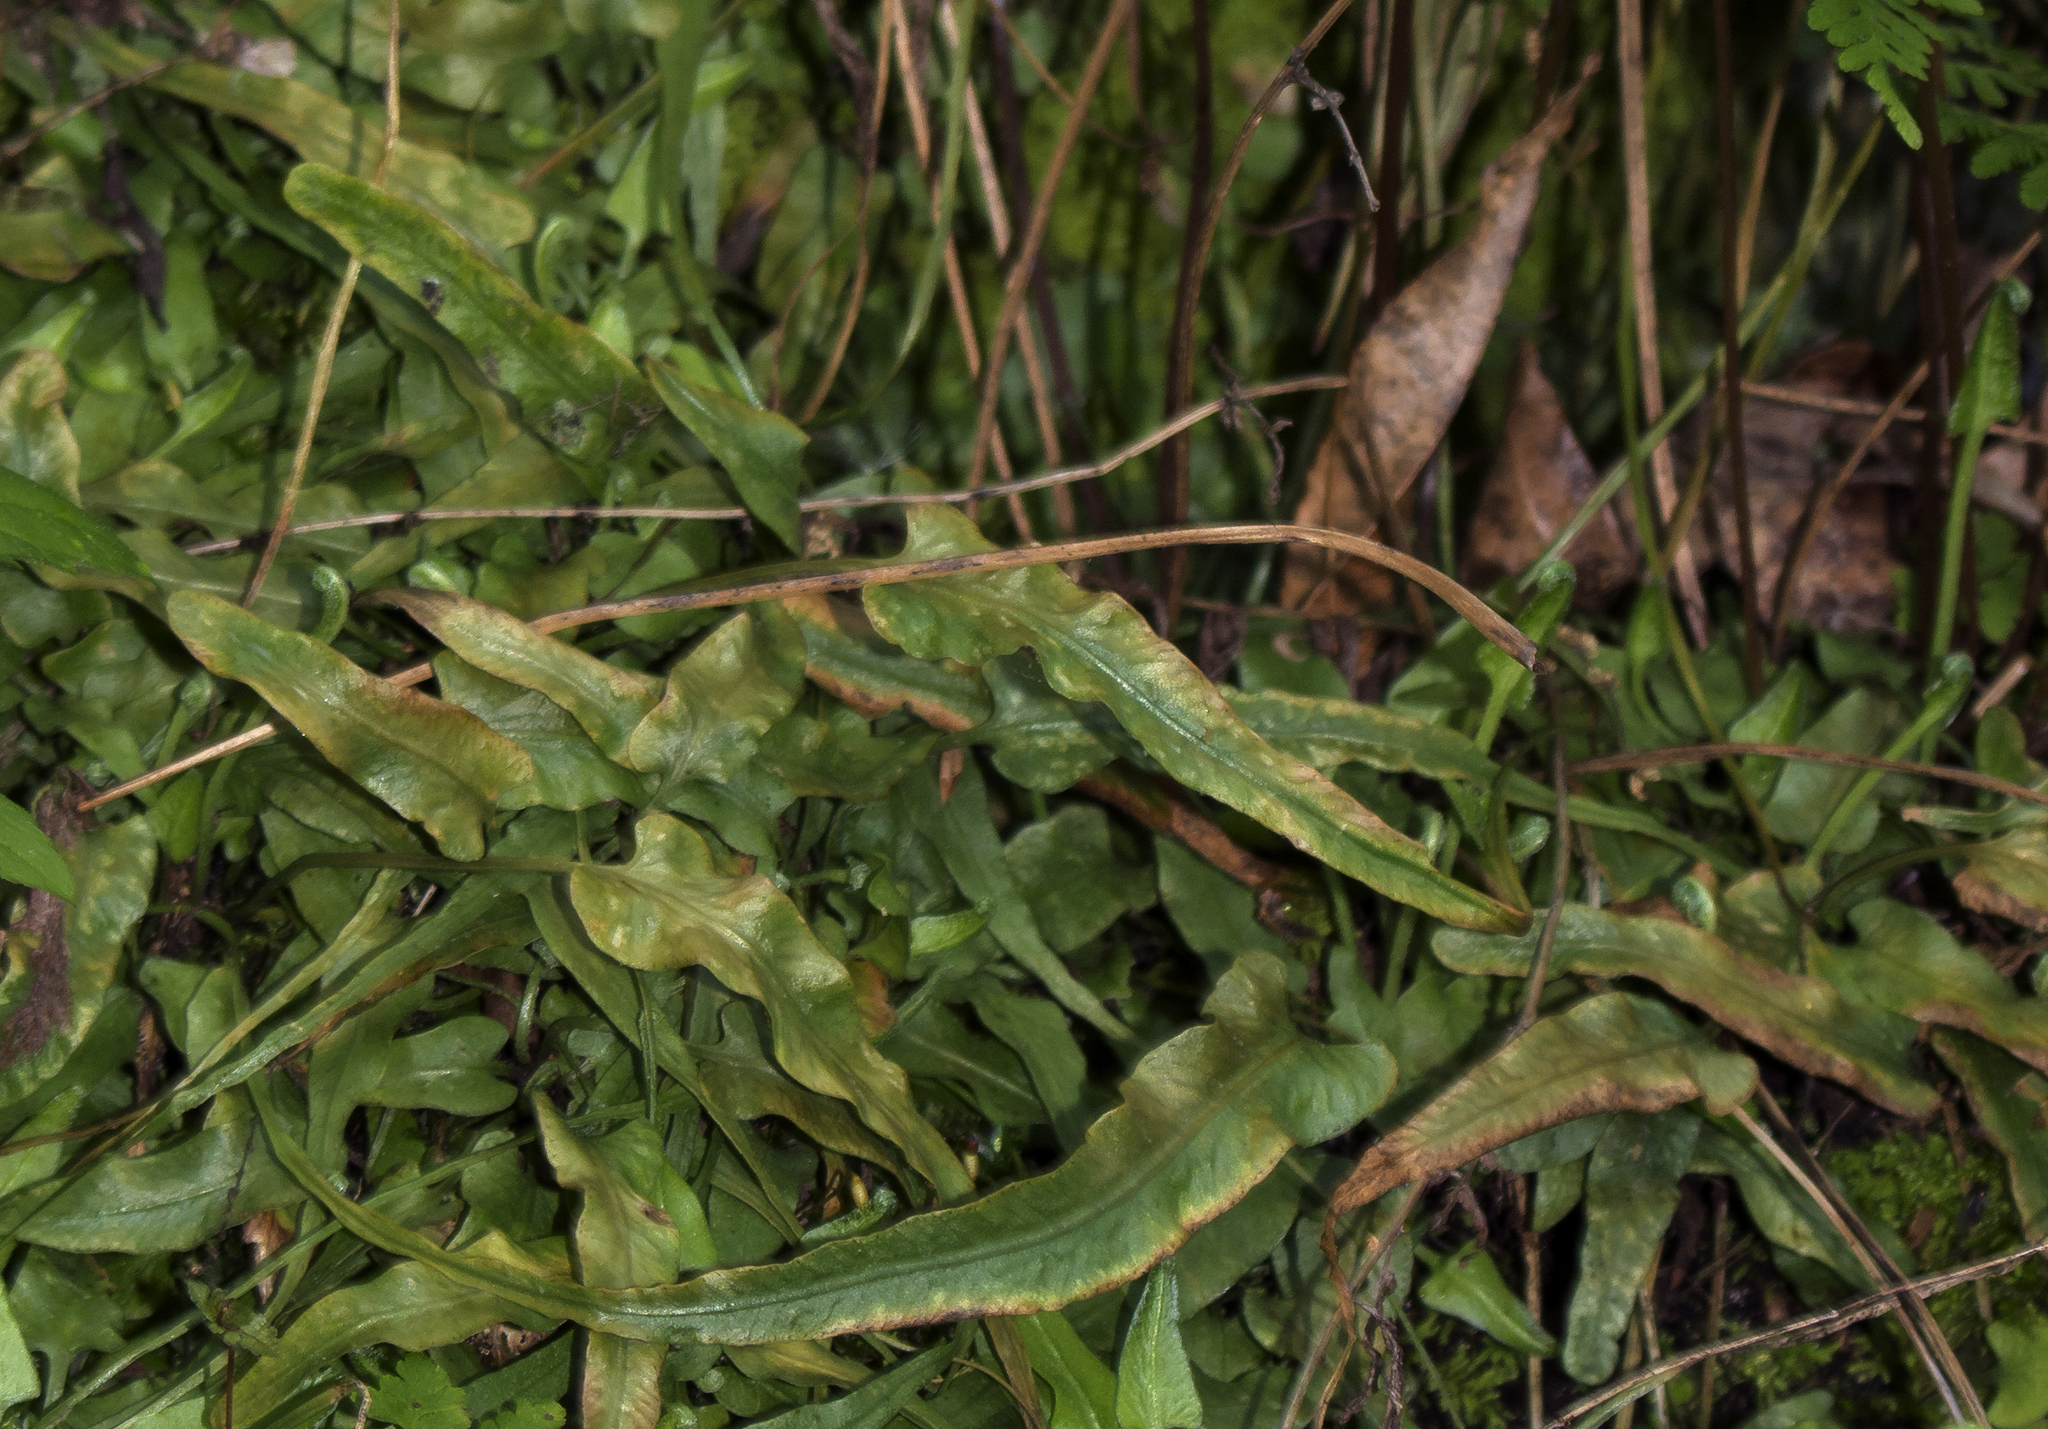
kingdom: Plantae
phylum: Tracheophyta
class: Polypodiopsida
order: Polypodiales
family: Aspleniaceae
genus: Asplenium
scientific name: Asplenium rhizophyllum
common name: Walking fern
